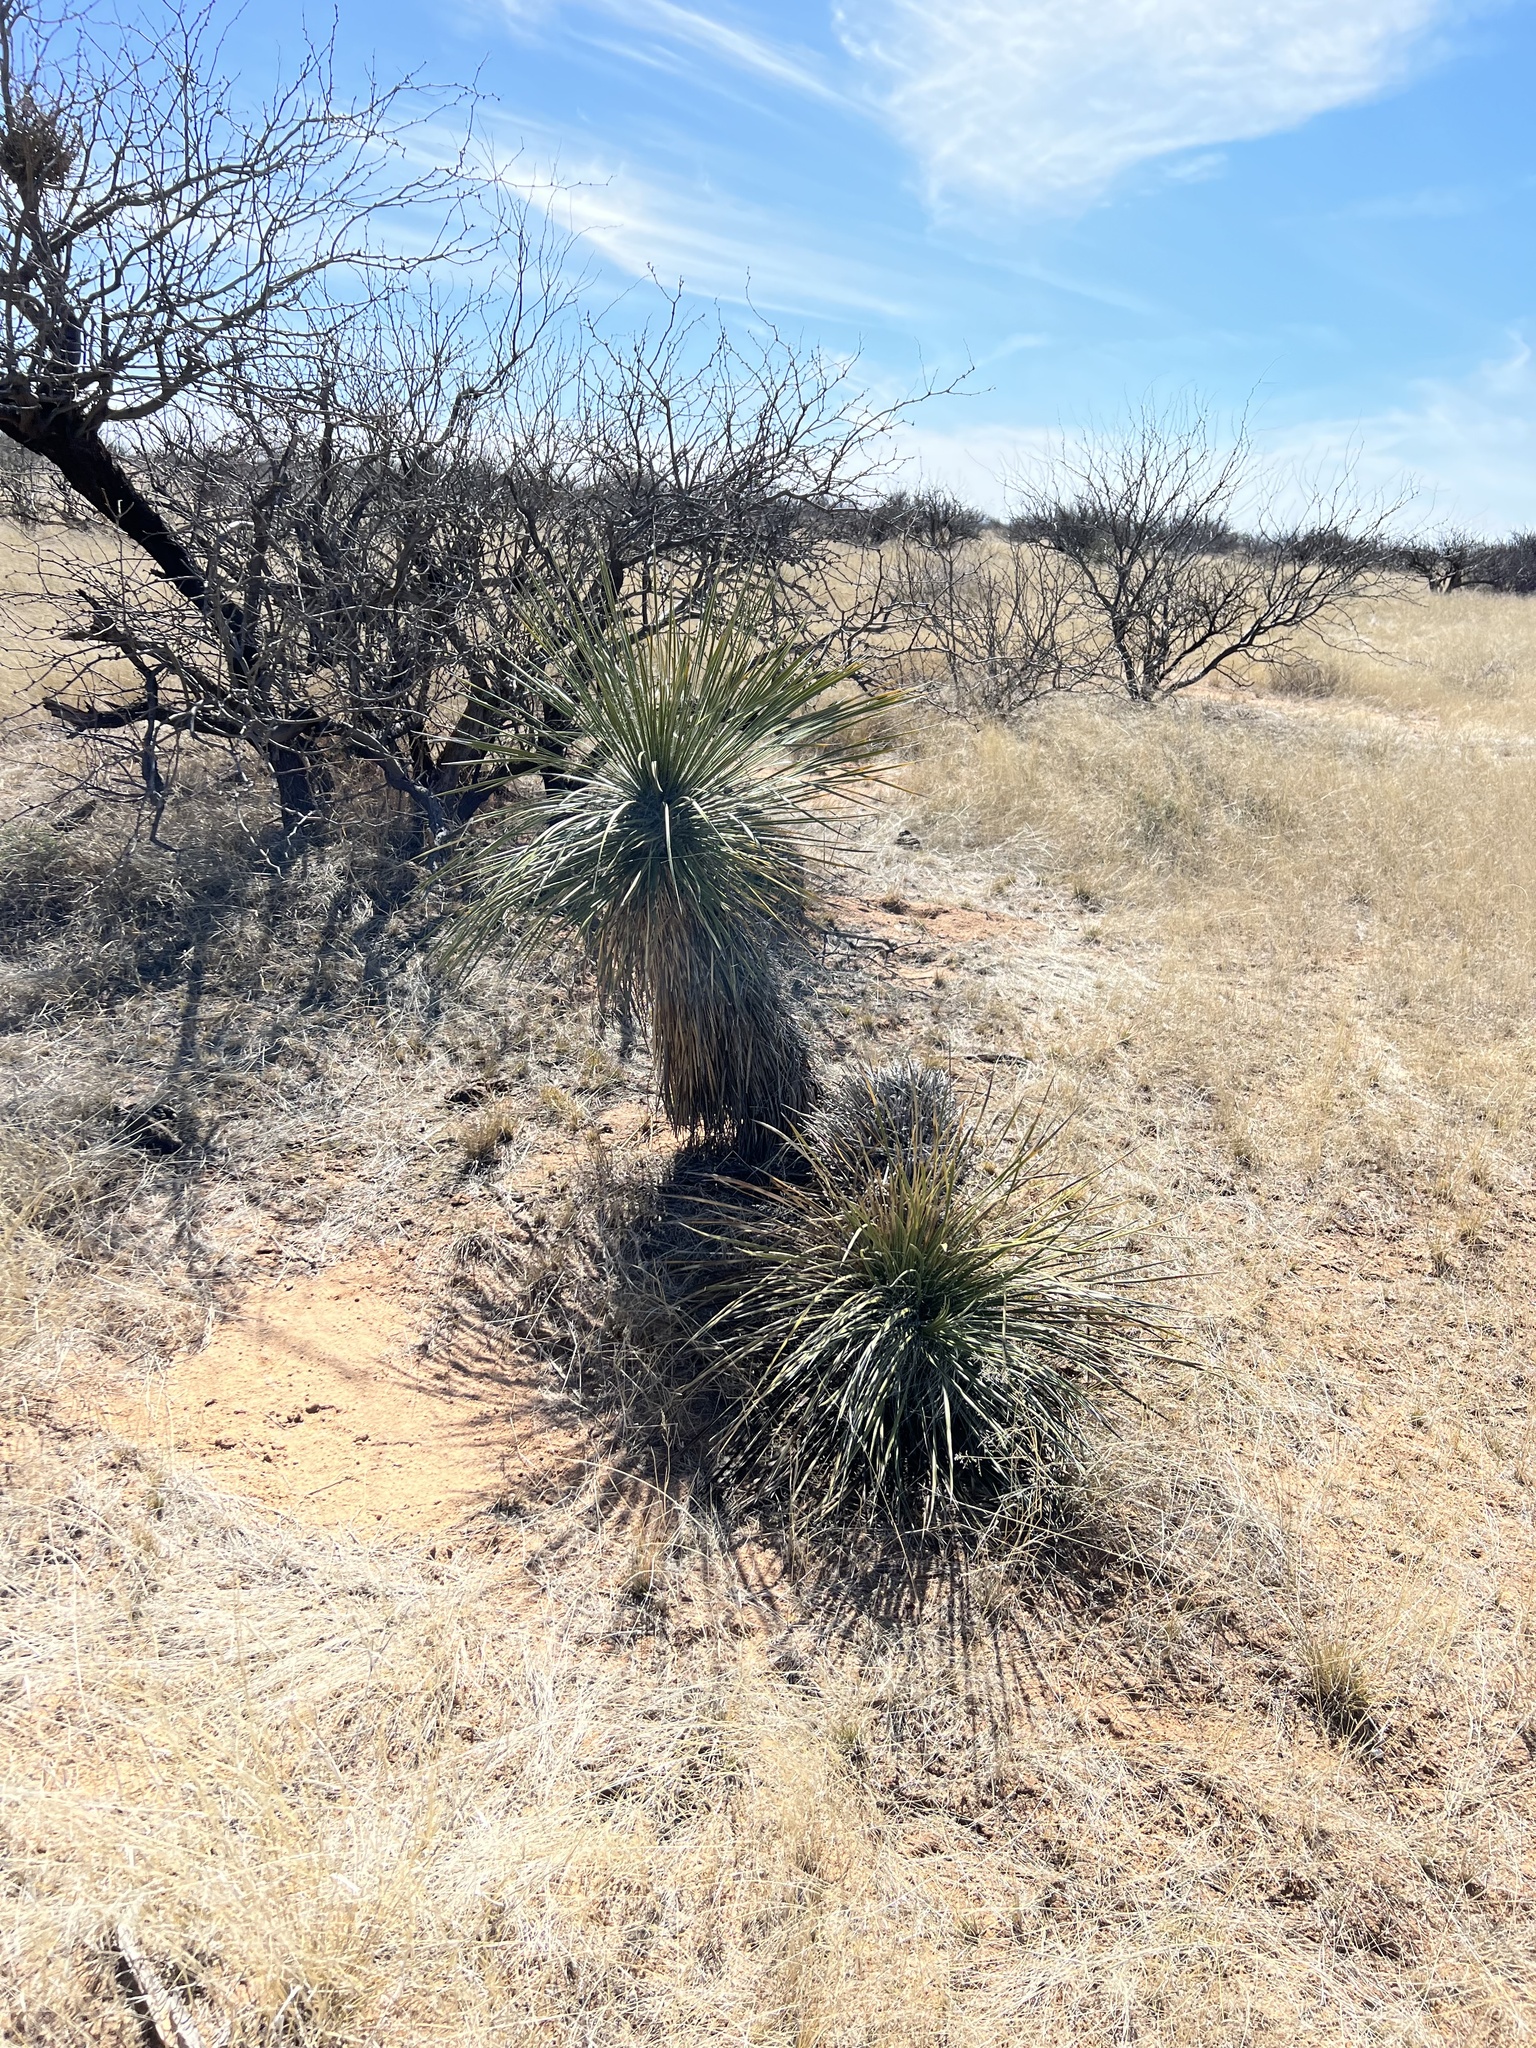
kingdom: Plantae
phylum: Tracheophyta
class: Liliopsida
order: Asparagales
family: Asparagaceae
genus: Yucca
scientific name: Yucca elata
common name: Palmella
